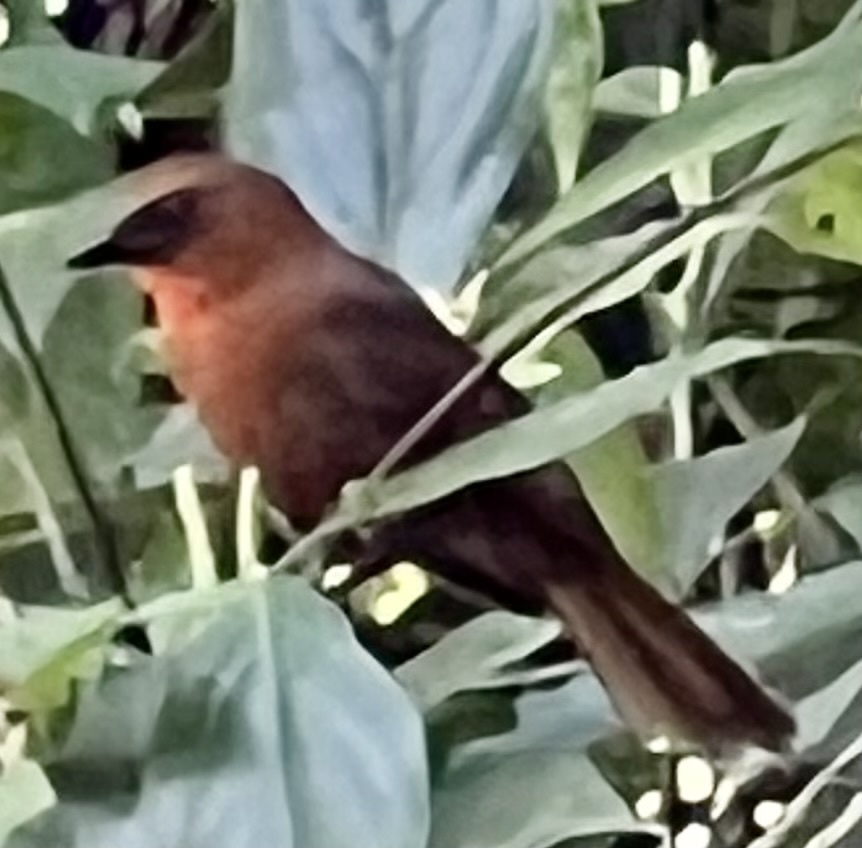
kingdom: Animalia
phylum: Chordata
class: Aves
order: Passeriformes
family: Cardinalidae
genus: Habia
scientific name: Habia fuscicauda
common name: Red-throated ant-tanager
